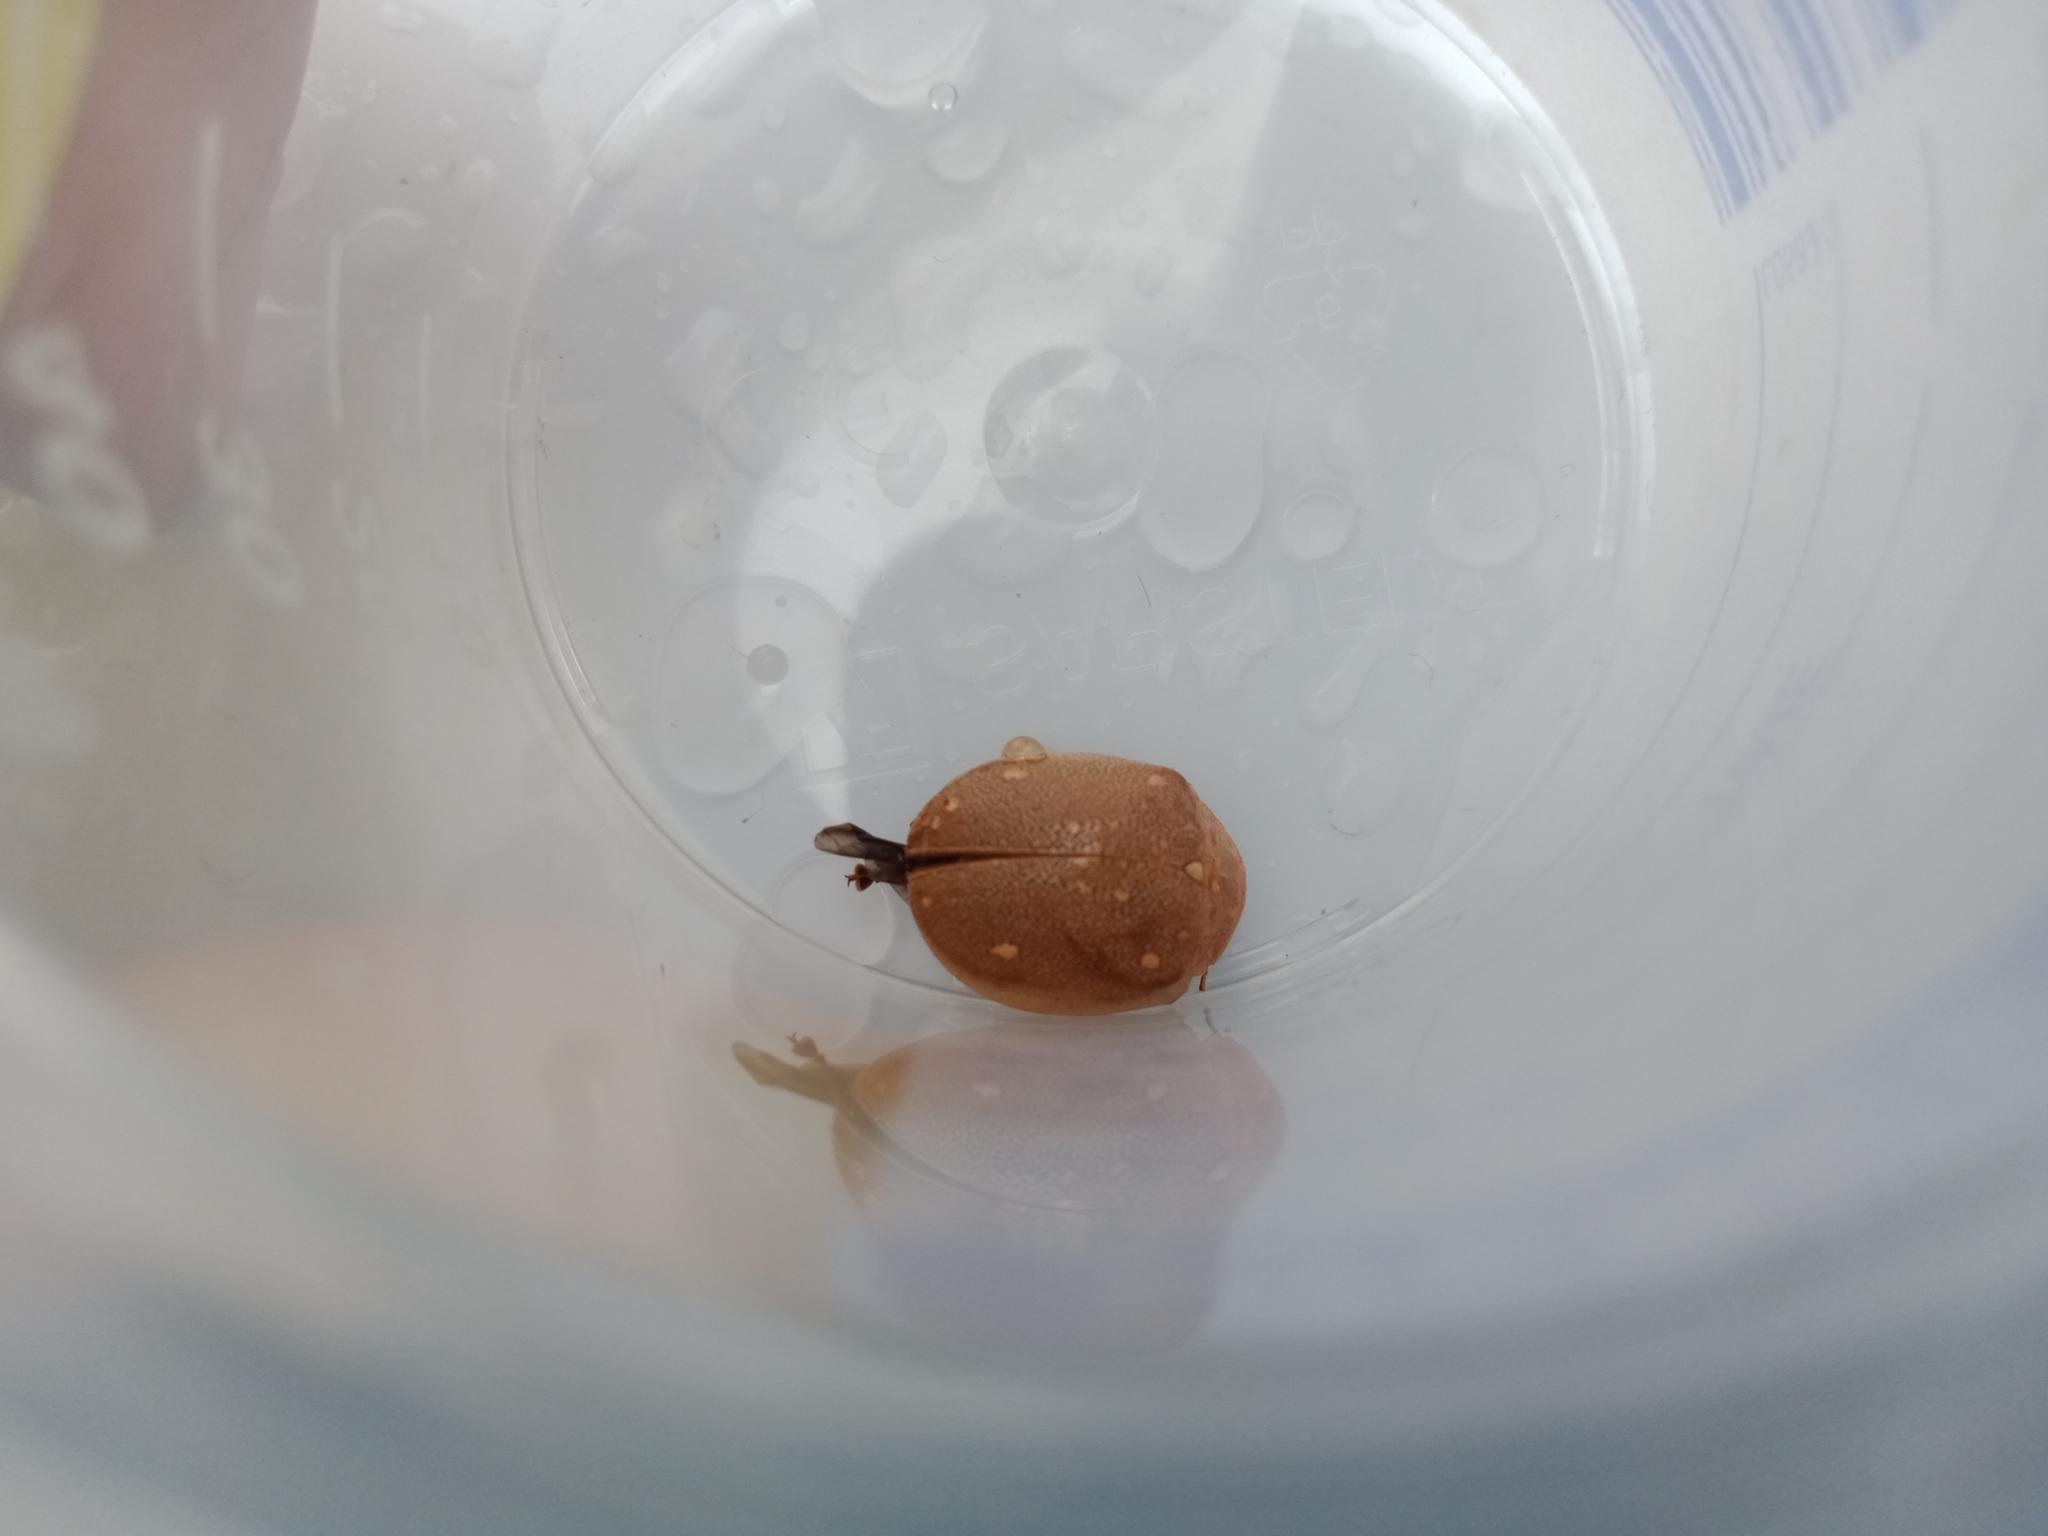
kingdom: Animalia
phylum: Arthropoda
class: Insecta
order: Coleoptera
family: Chrysomelidae
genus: Paropsis
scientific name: Paropsis
